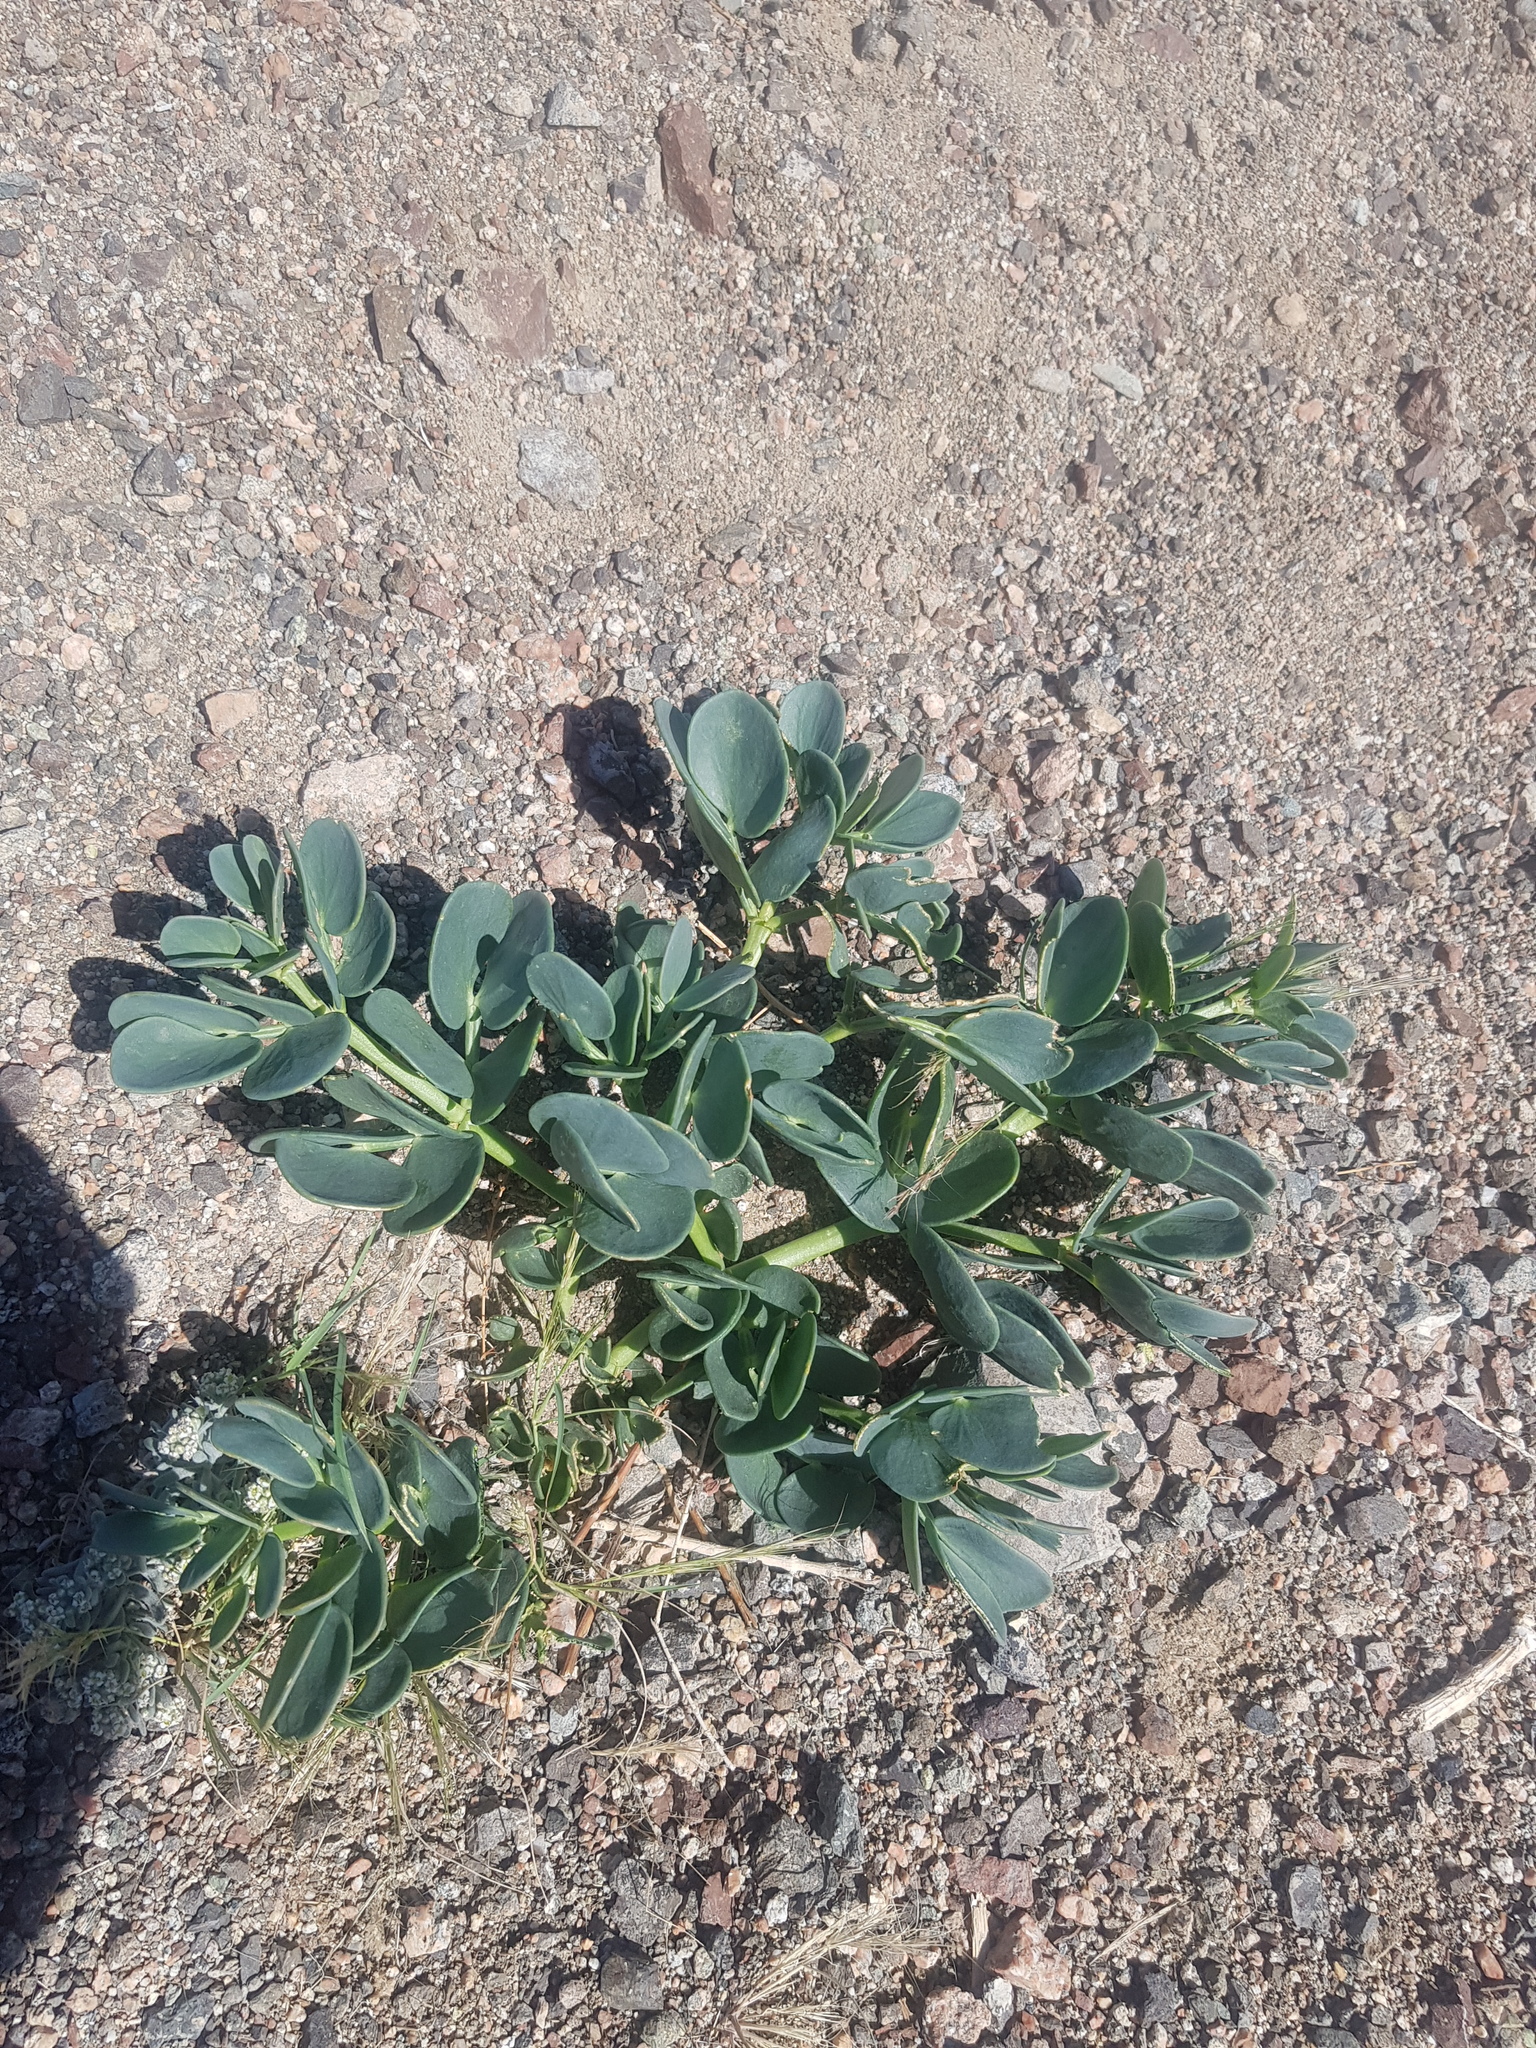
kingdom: Plantae
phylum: Tracheophyta
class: Magnoliopsida
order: Zygophyllales
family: Zygophyllaceae
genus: Zygophyllum
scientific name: Zygophyllum potaninii
